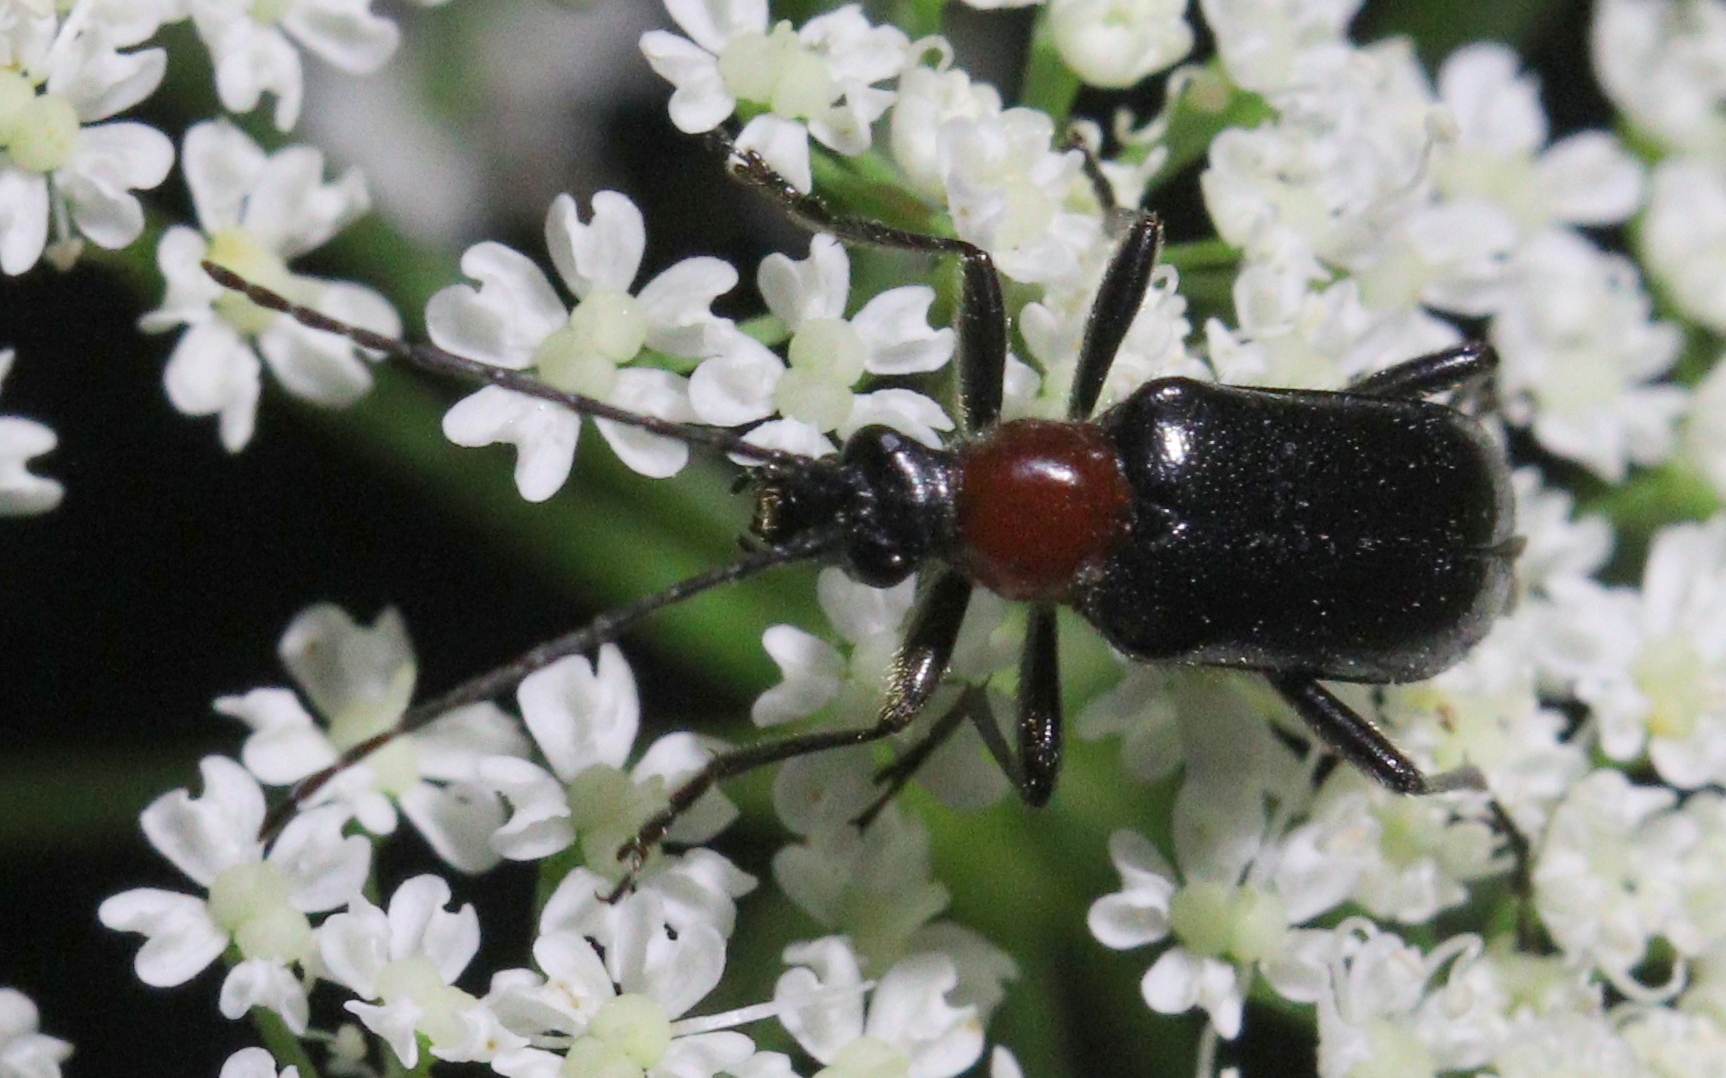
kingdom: Animalia
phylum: Arthropoda
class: Insecta
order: Coleoptera
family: Cerambycidae
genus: Dinoptera
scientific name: Dinoptera collaris
